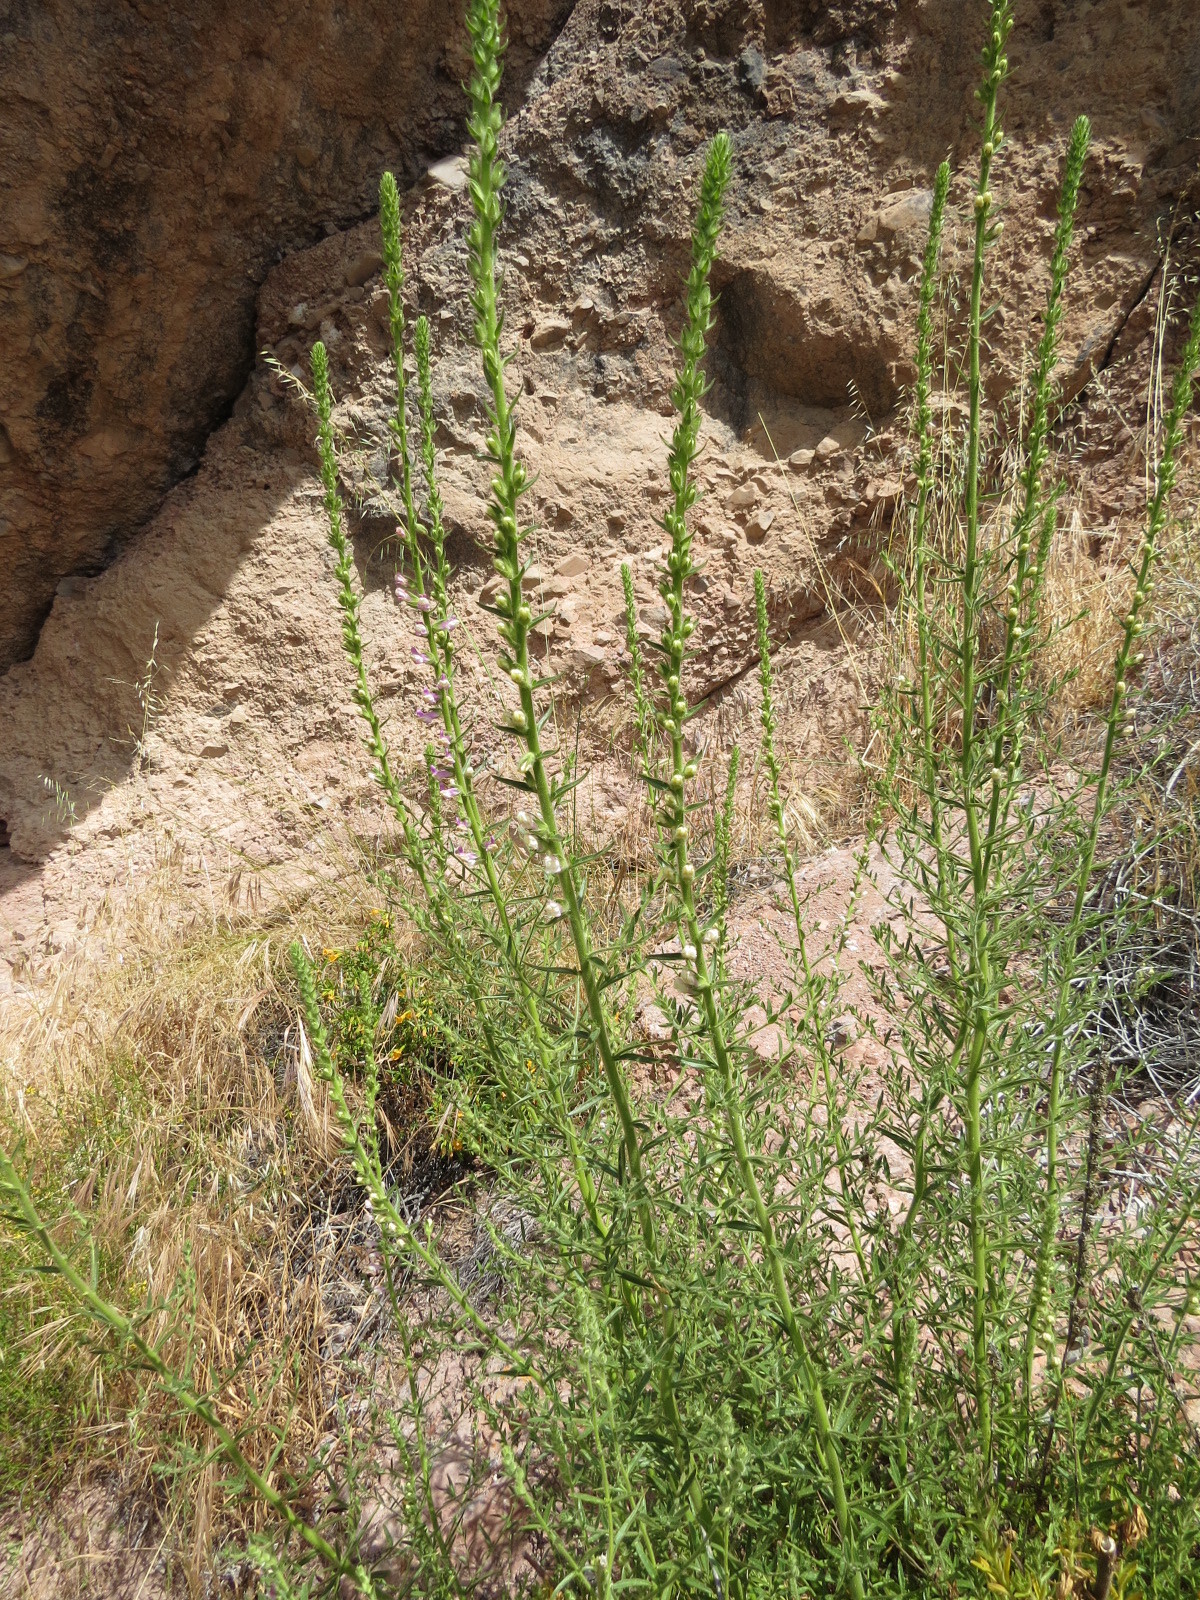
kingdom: Plantae
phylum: Tracheophyta
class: Magnoliopsida
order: Lamiales
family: Plantaginaceae
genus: Sairocarpus
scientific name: Sairocarpus multiflorus
